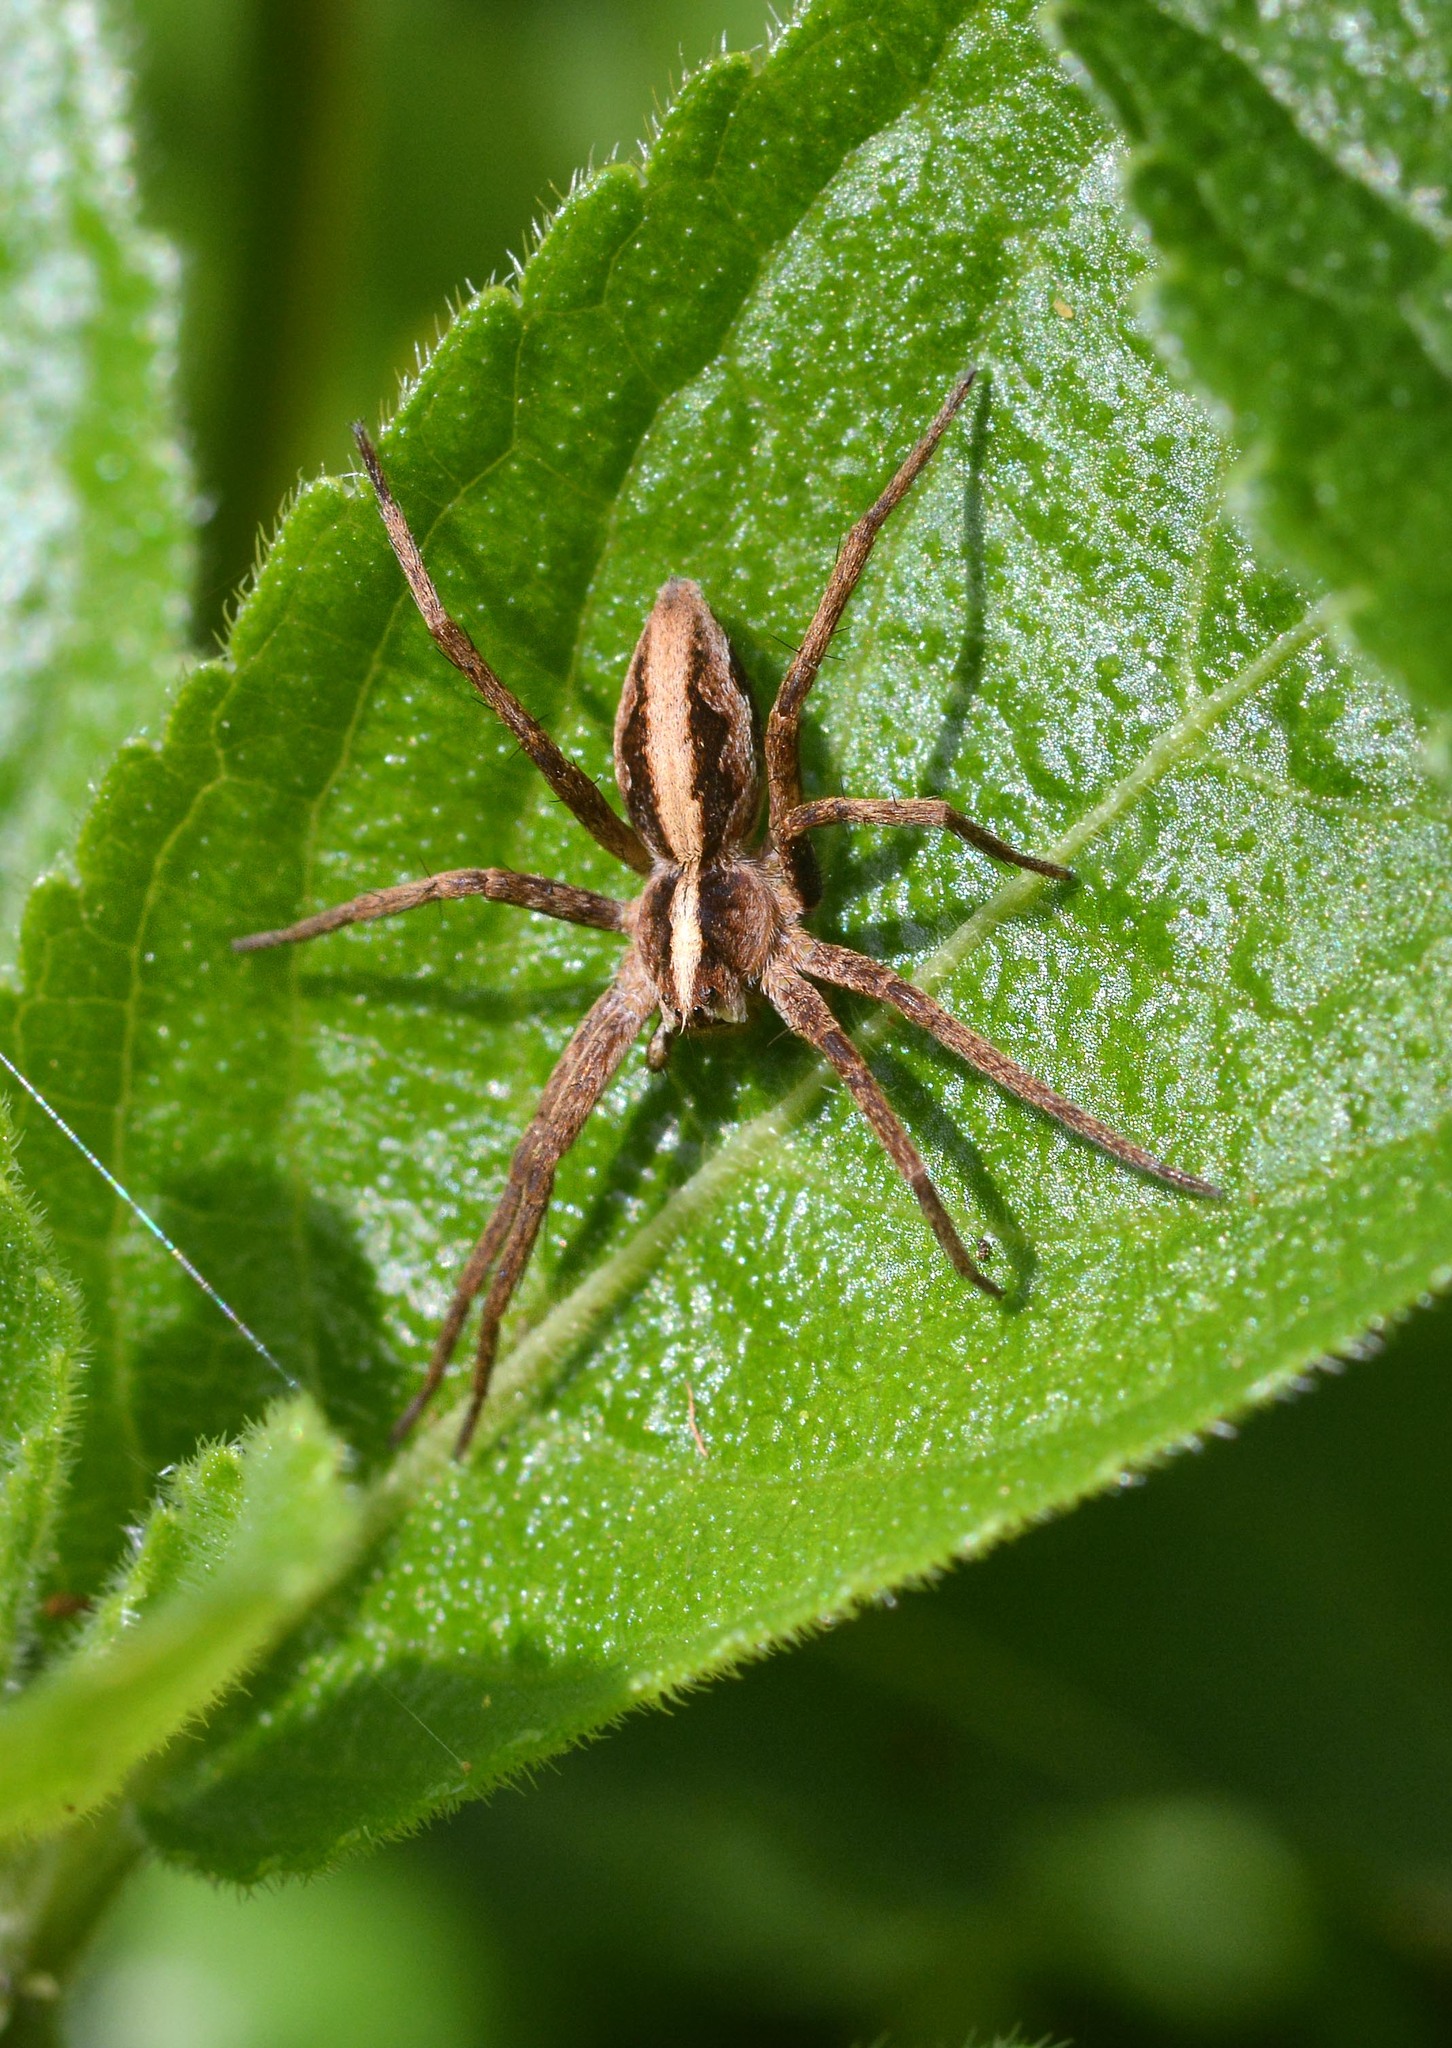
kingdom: Animalia
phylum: Arthropoda
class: Arachnida
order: Araneae
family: Pisauridae
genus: Pisaura
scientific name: Pisaura mirabilis
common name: Tent spider
